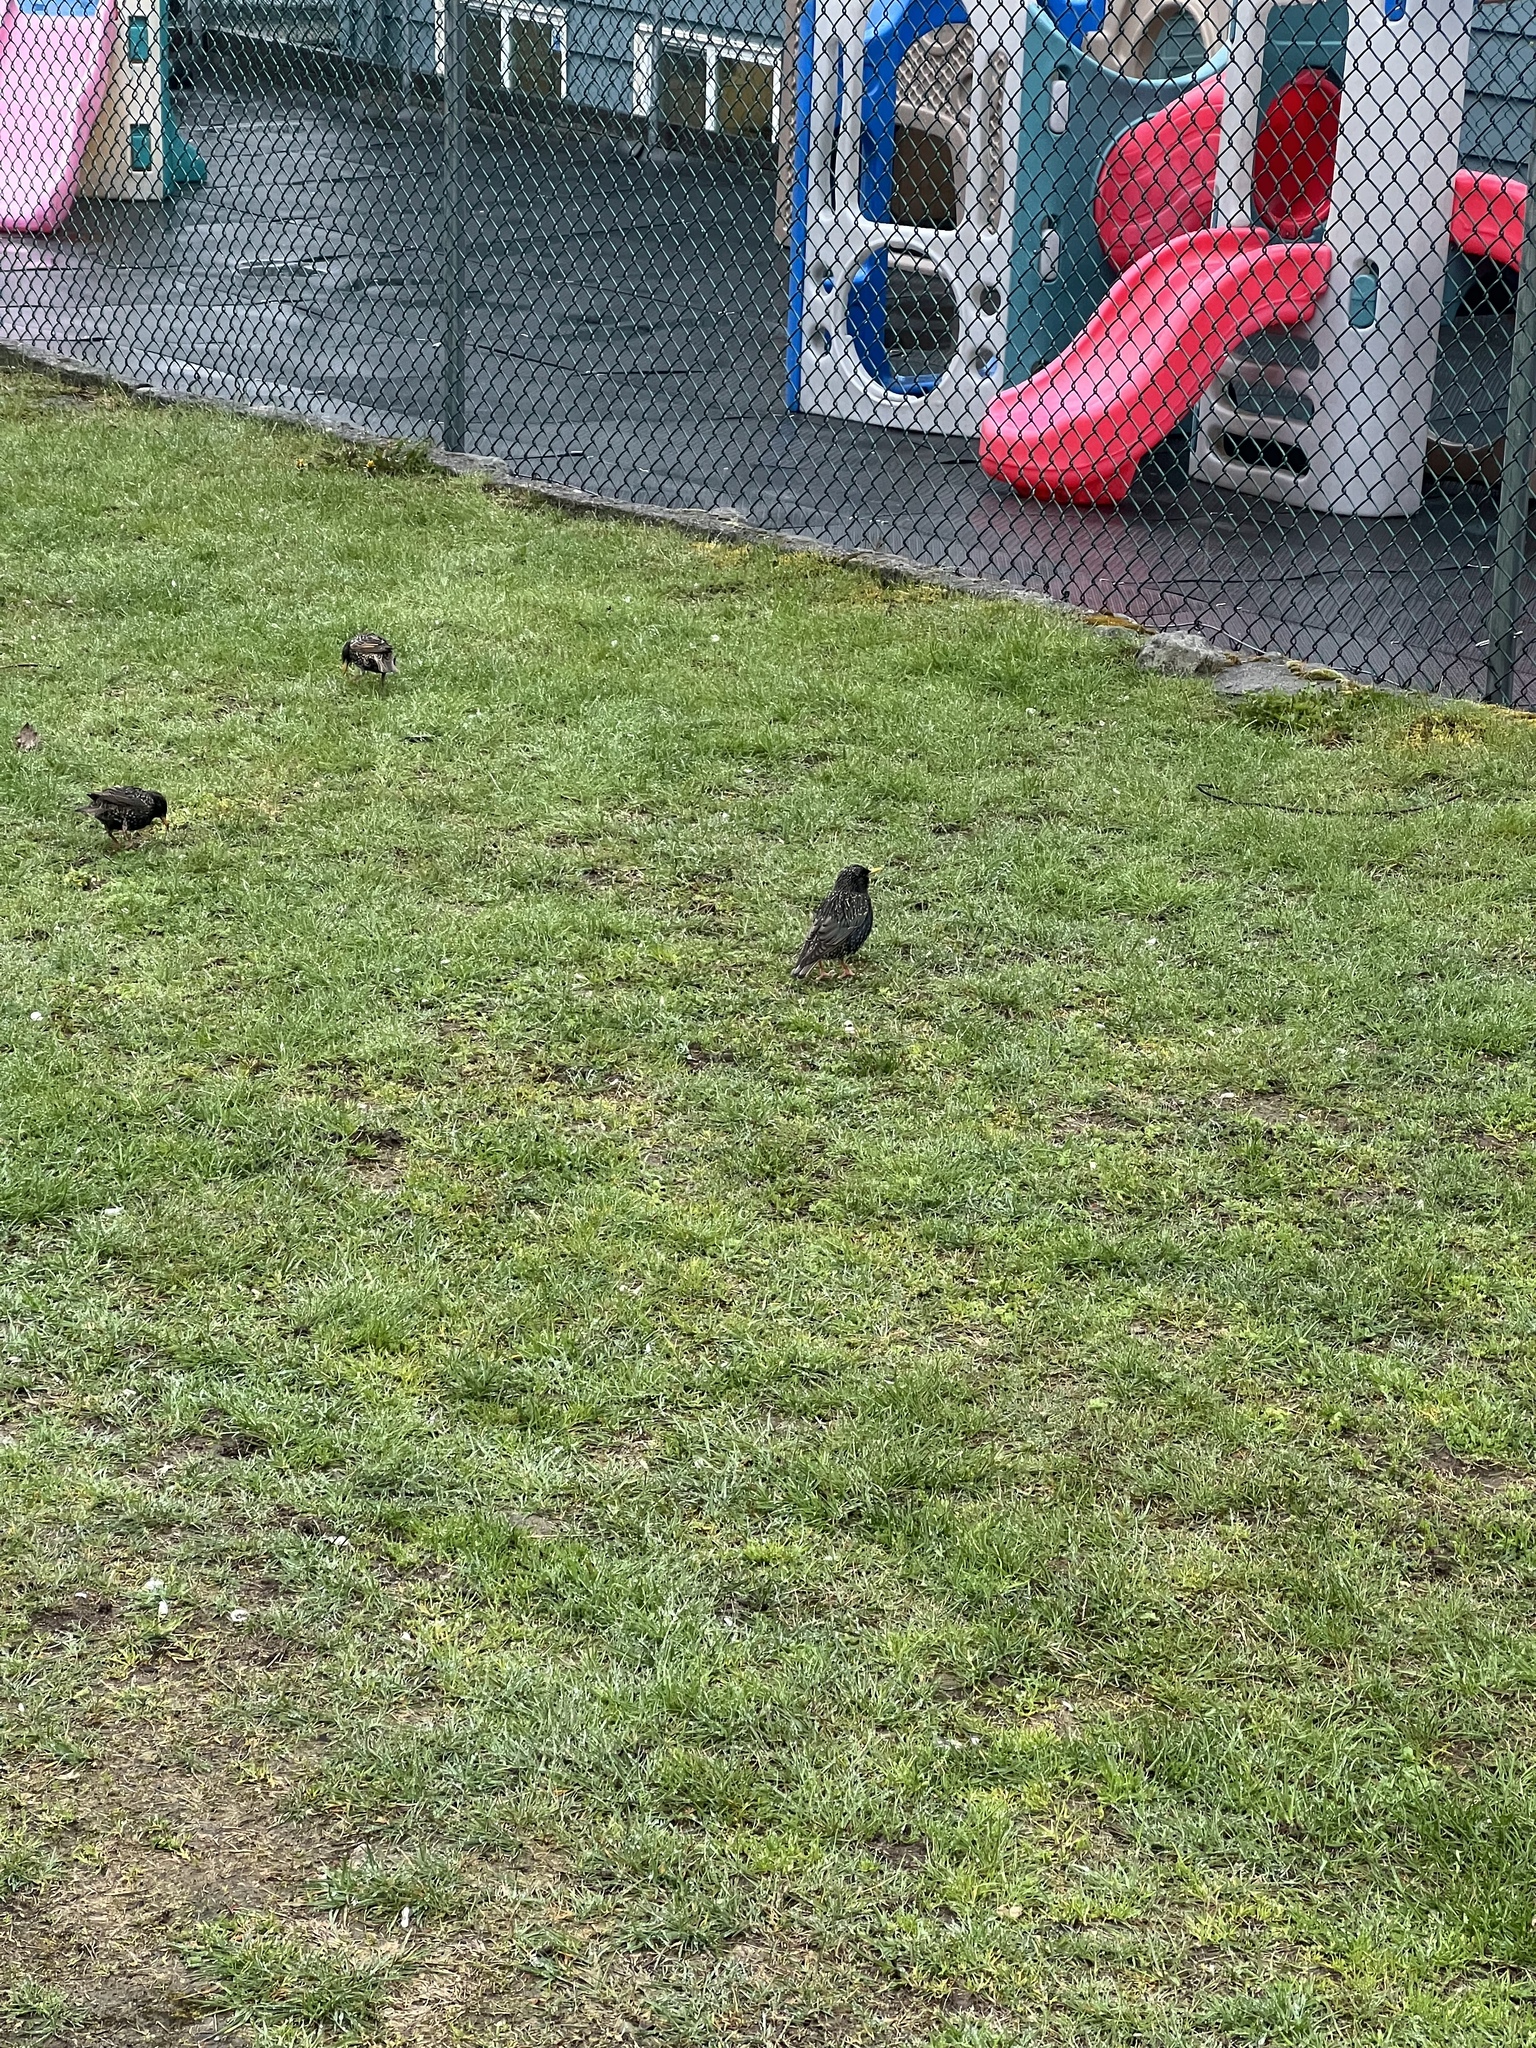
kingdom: Animalia
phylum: Chordata
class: Aves
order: Passeriformes
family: Sturnidae
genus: Sturnus
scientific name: Sturnus vulgaris
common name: Common starling
